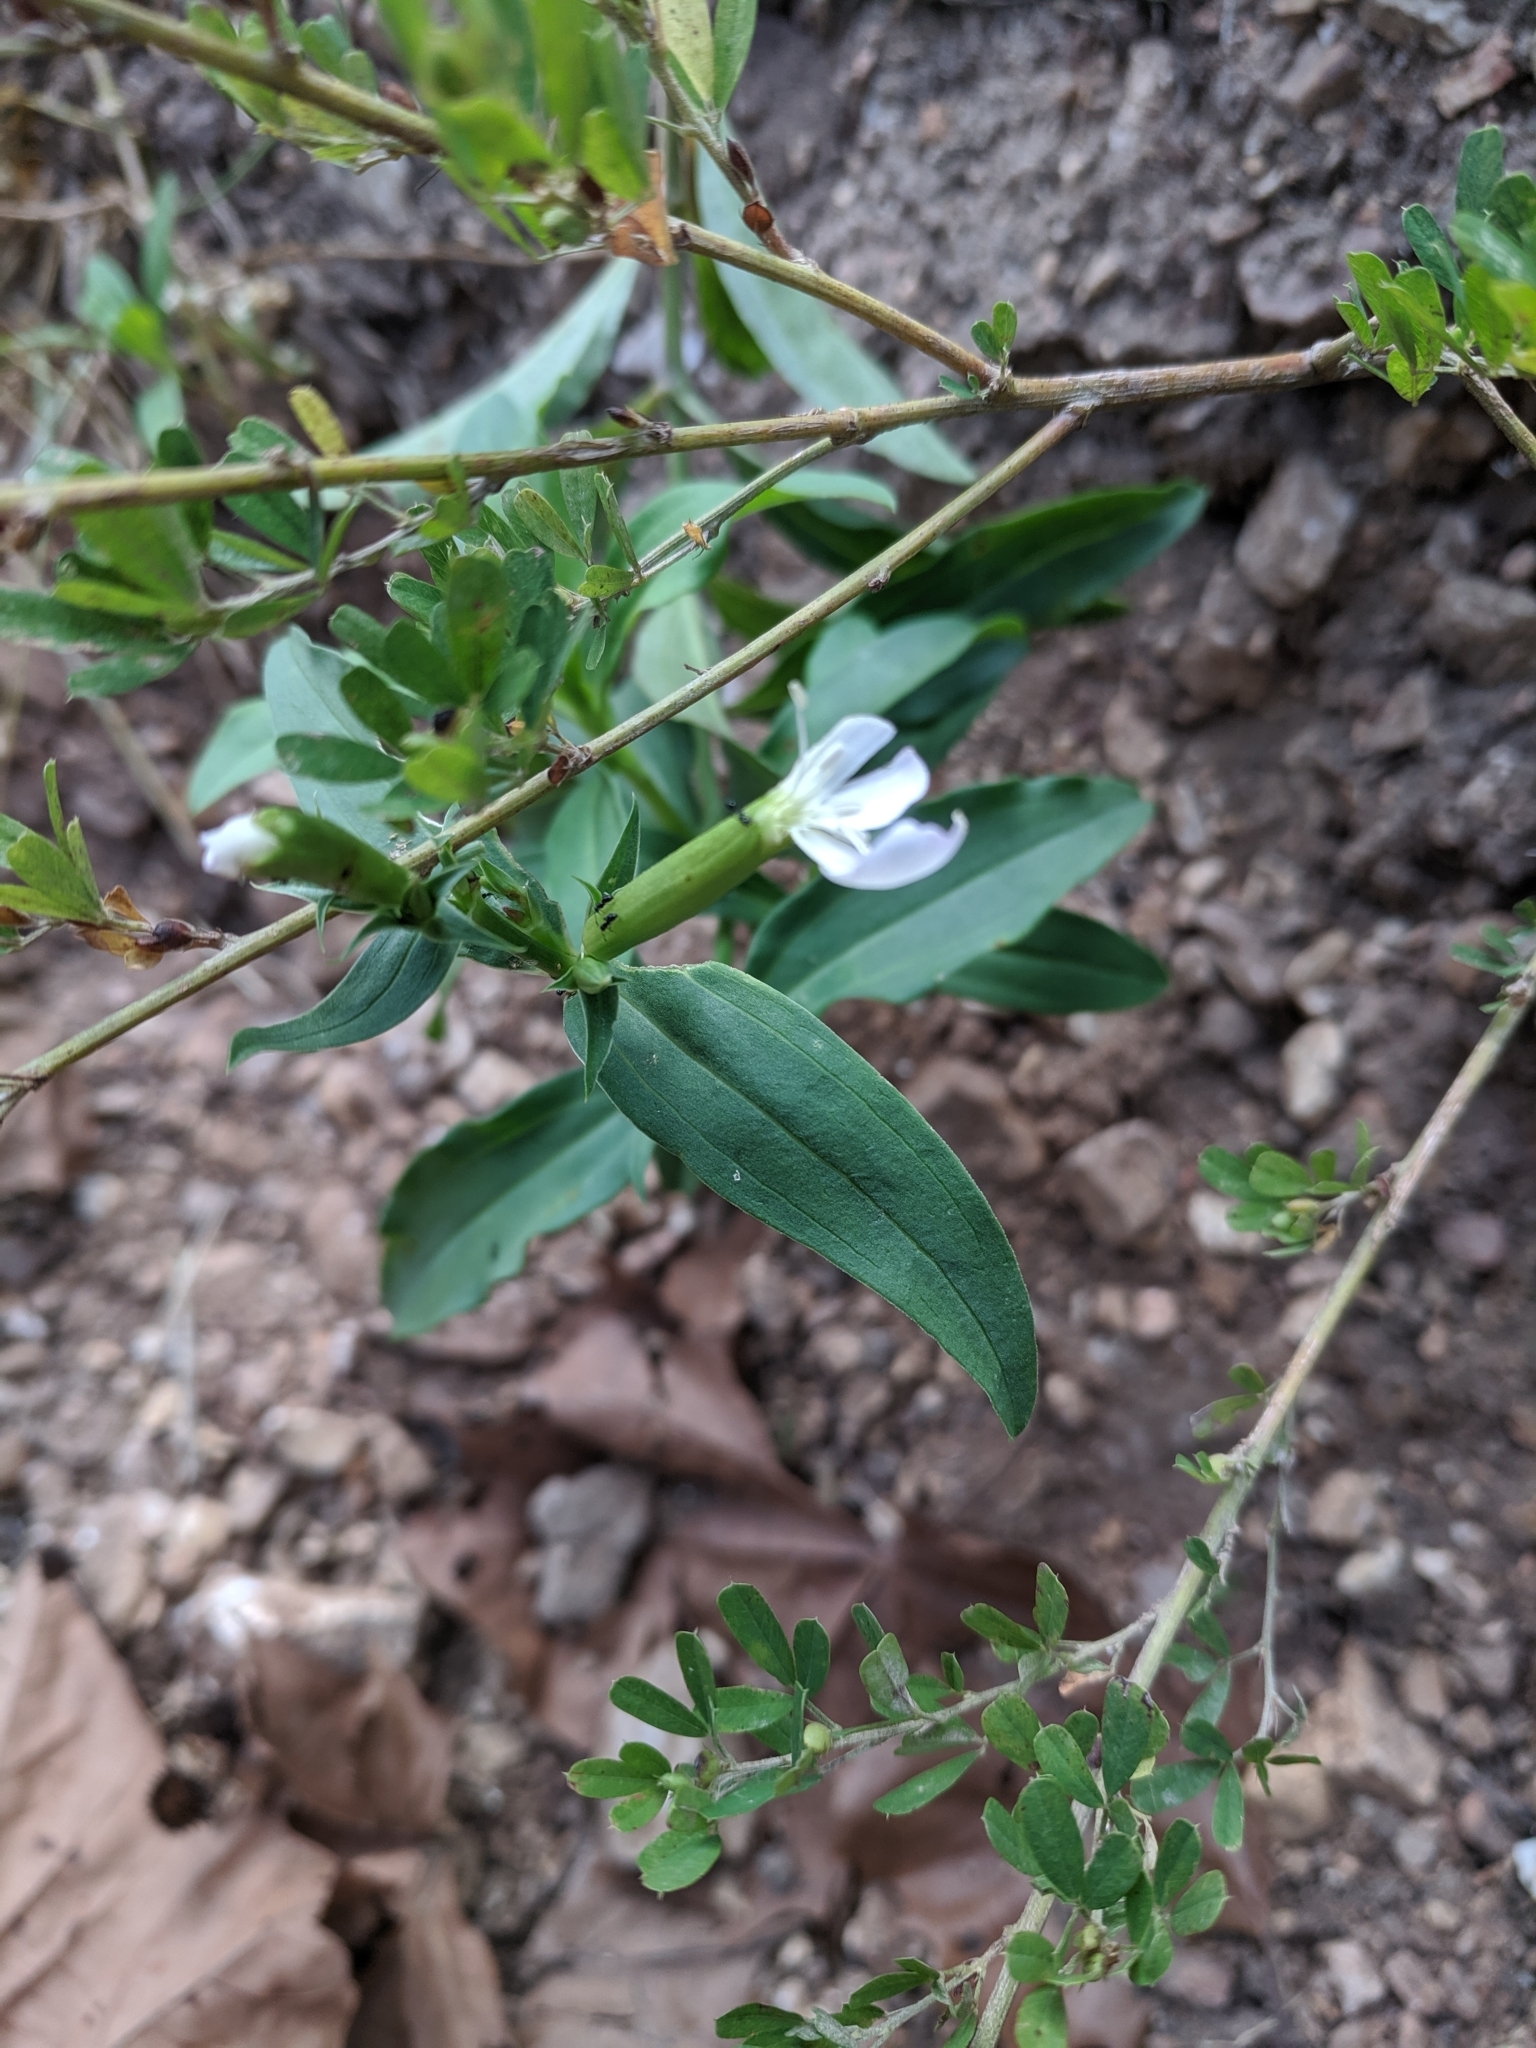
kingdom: Plantae
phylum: Tracheophyta
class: Magnoliopsida
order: Caryophyllales
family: Caryophyllaceae
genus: Saponaria
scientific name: Saponaria officinalis
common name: Soapwort
